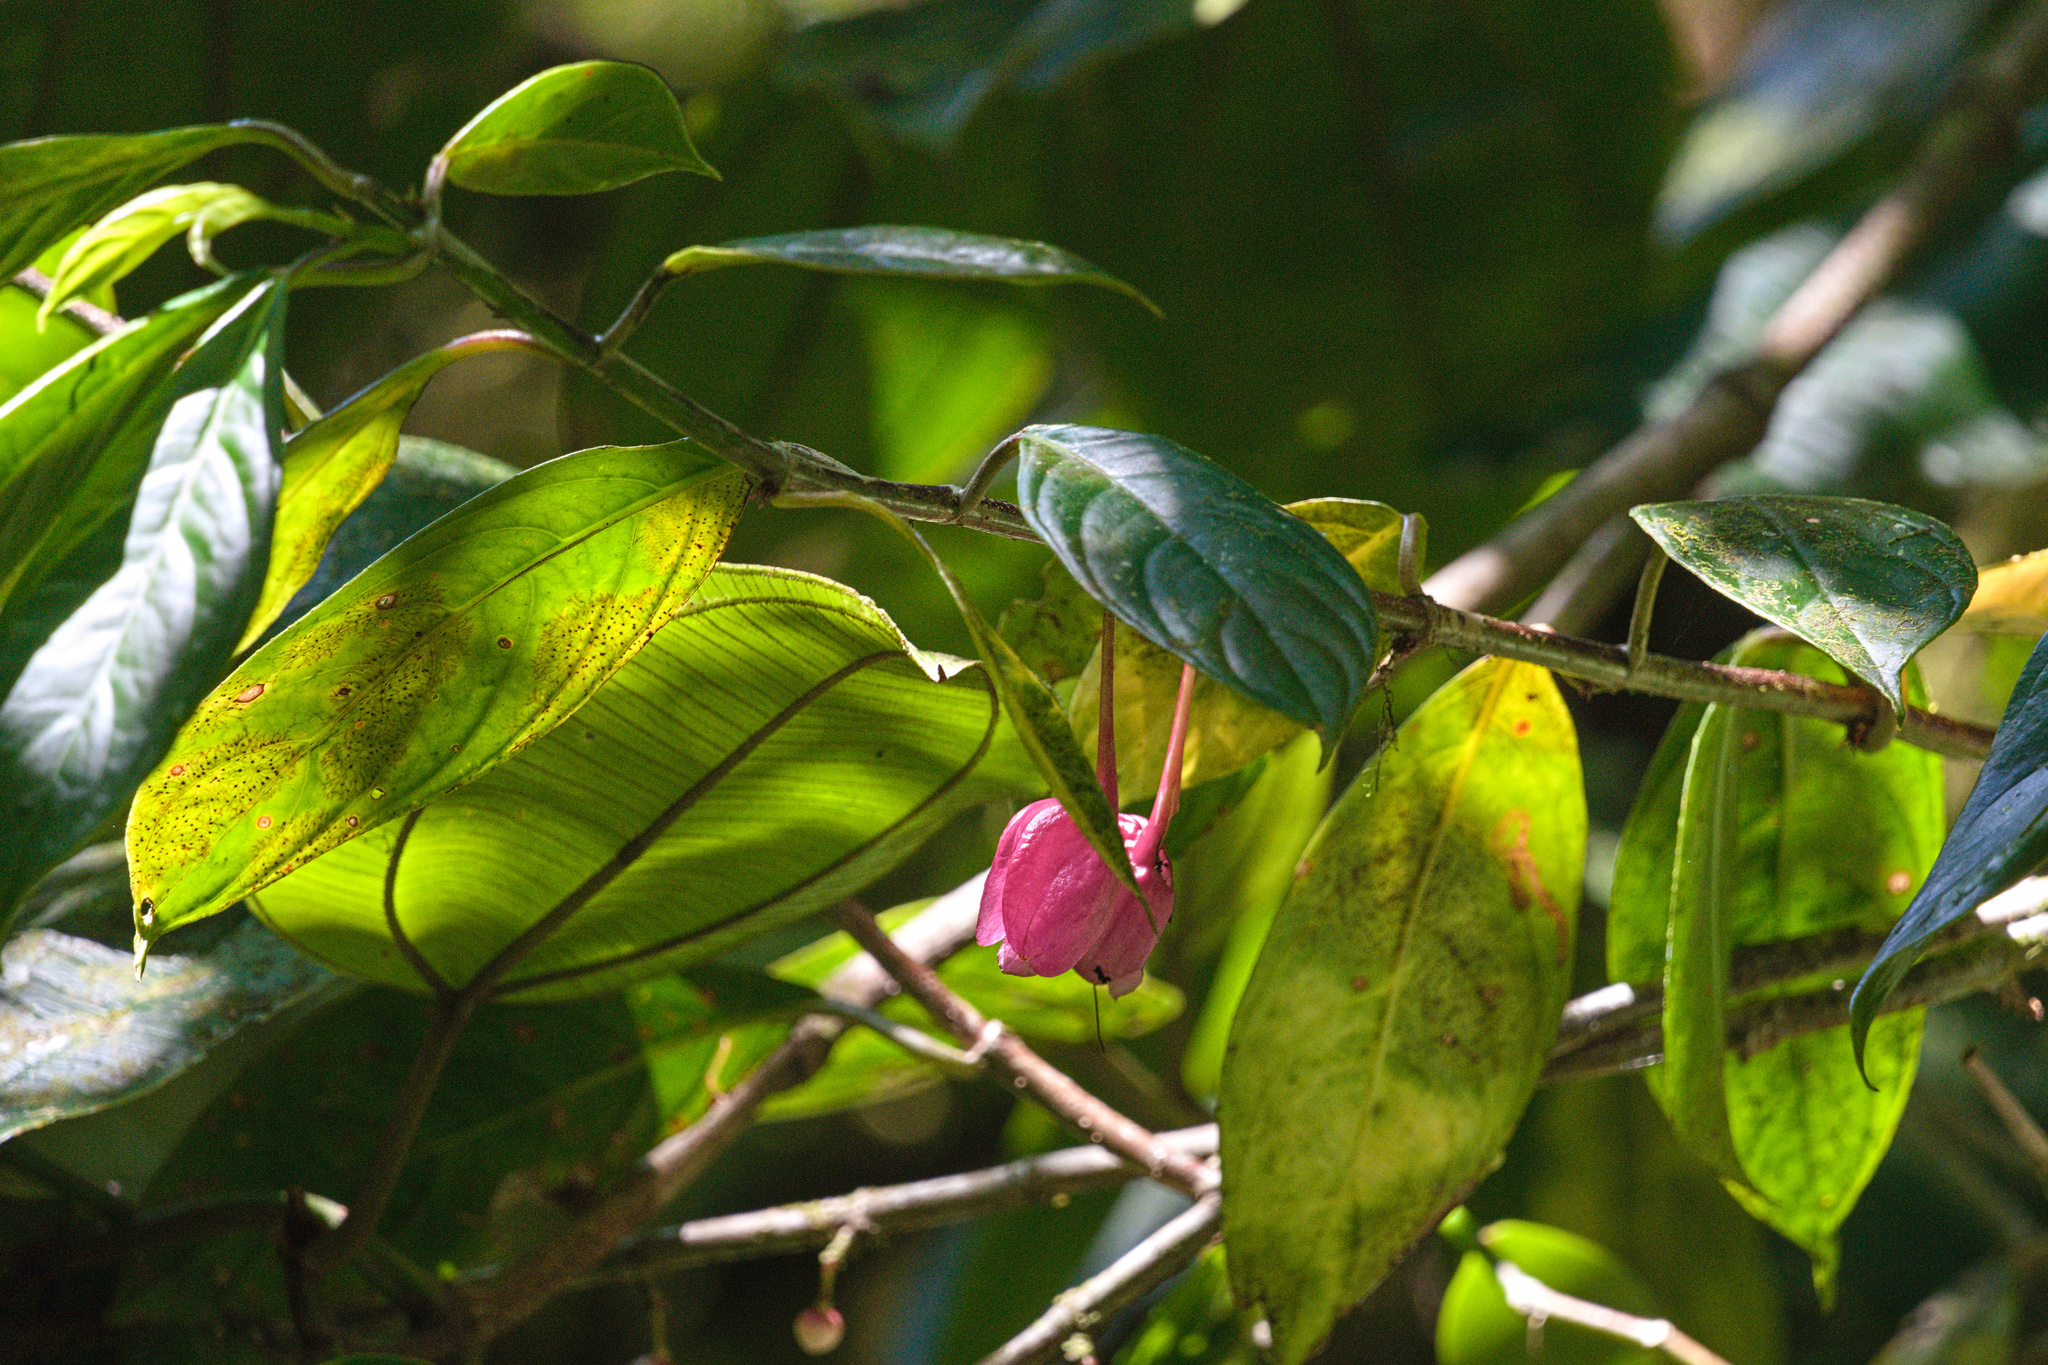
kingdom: Plantae
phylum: Tracheophyta
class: Magnoliopsida
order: Lamiales
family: Gesneriaceae
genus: Drymonia
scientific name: Drymonia conchocalyx
